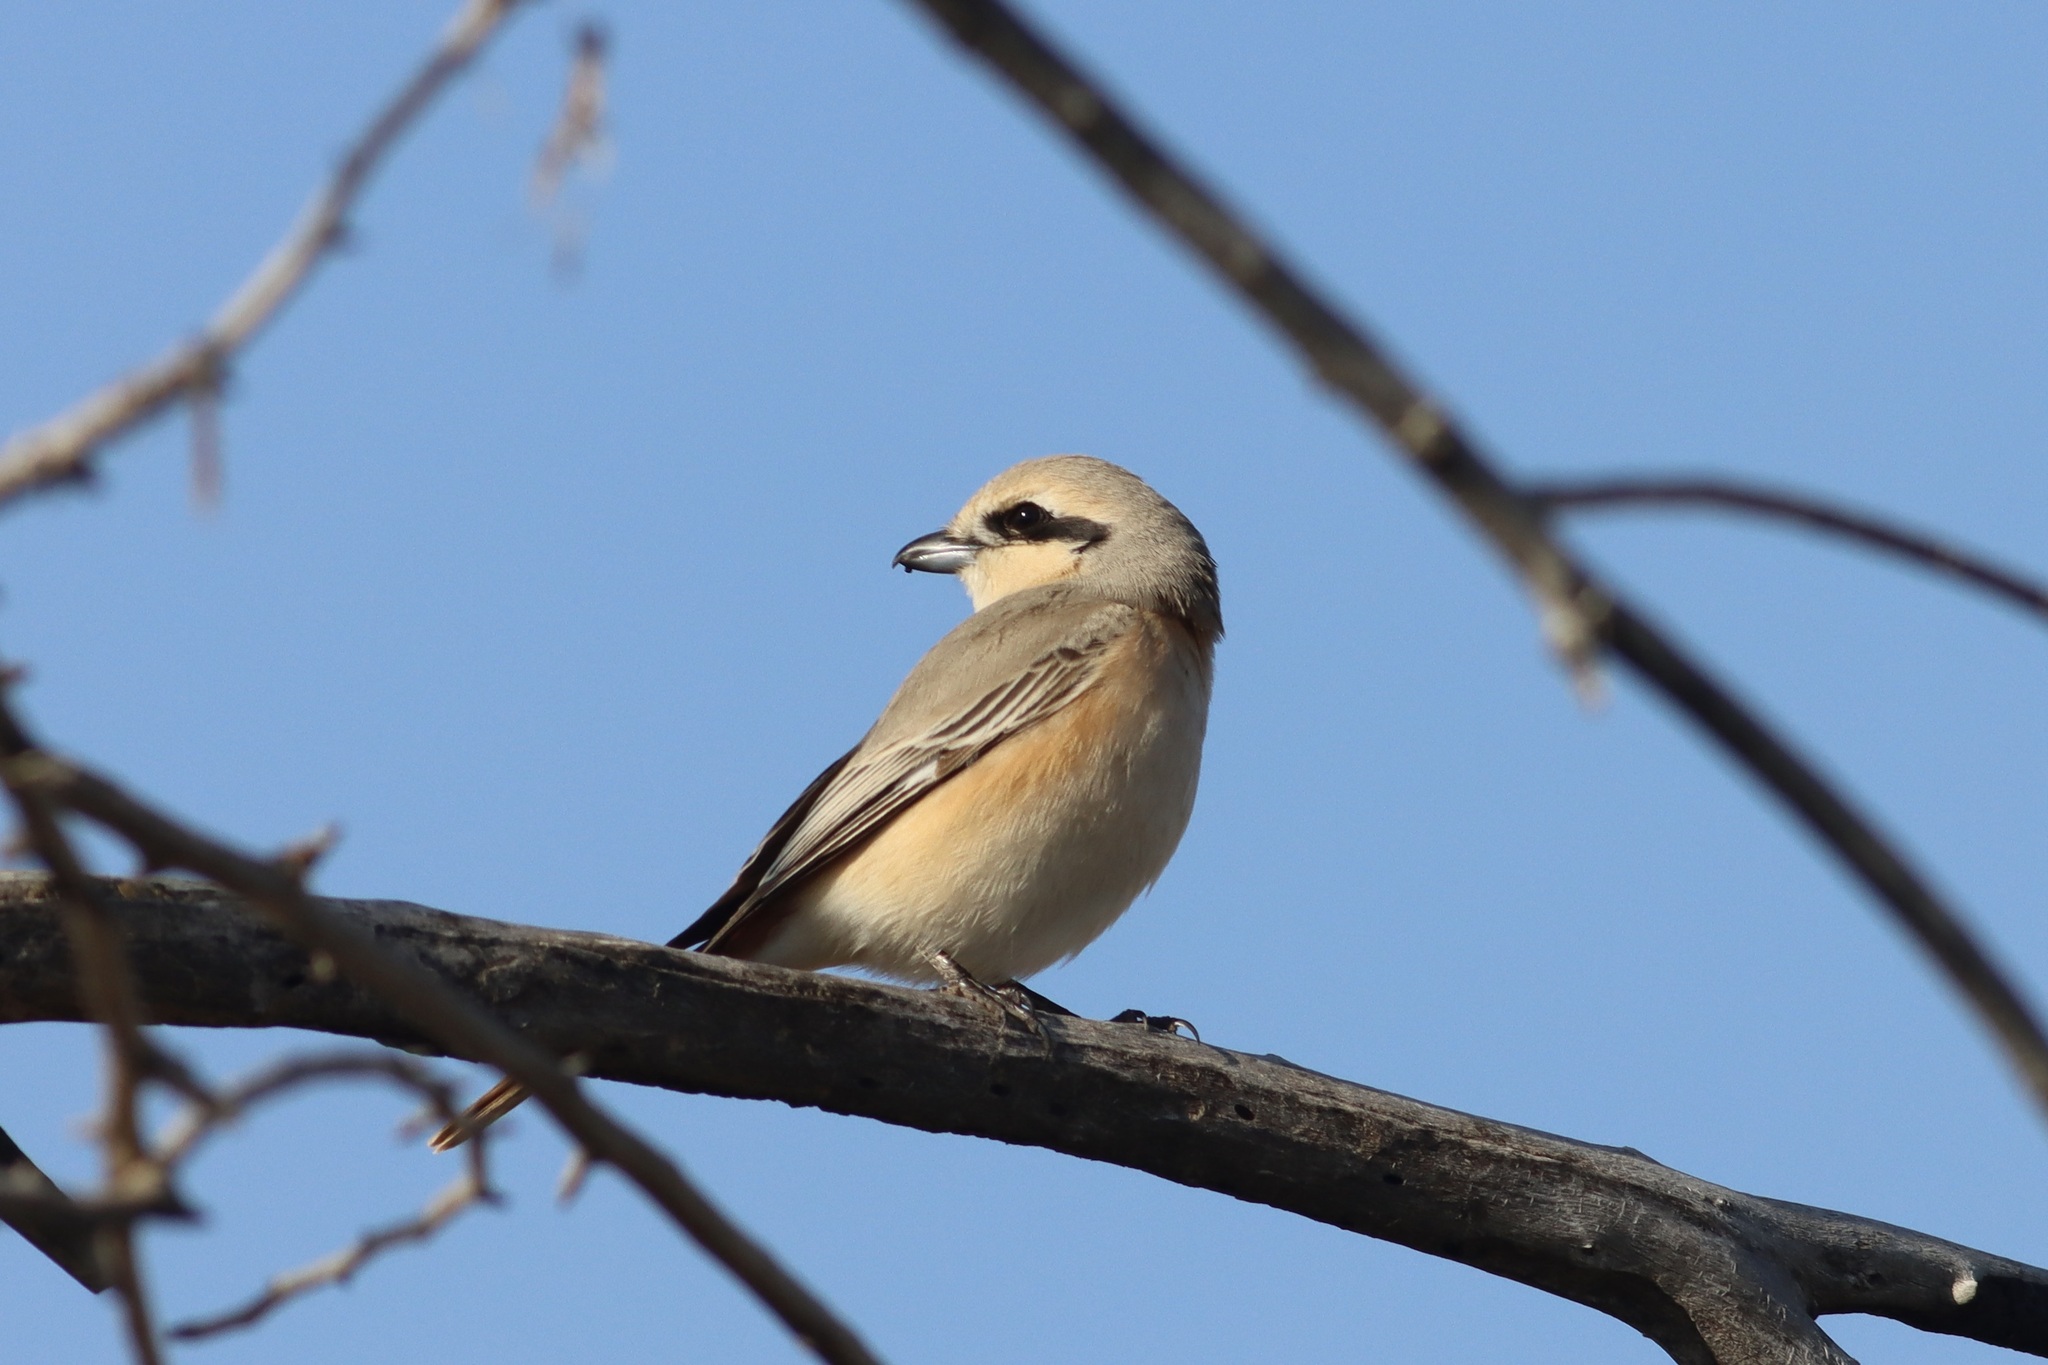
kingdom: Animalia
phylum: Chordata
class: Aves
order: Passeriformes
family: Laniidae
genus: Lanius
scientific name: Lanius isabellinus
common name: Isabelline shrike
